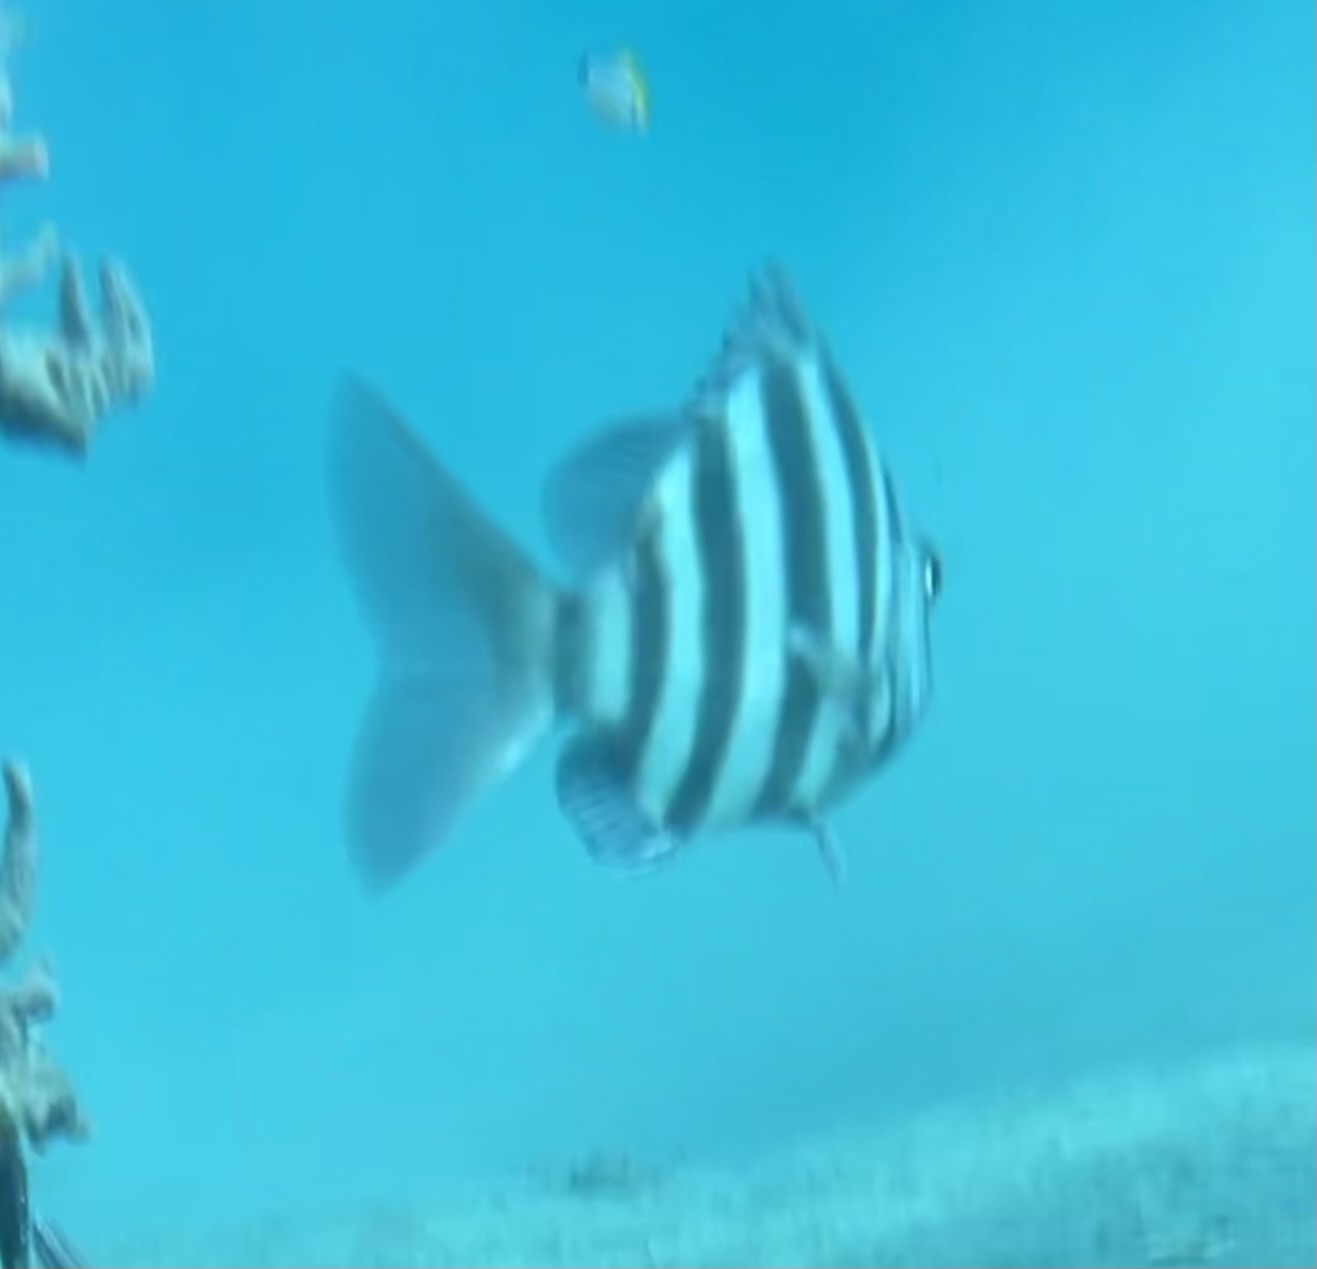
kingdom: Animalia
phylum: Chordata
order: Perciformes
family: Sparidae
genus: Archosargus
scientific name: Archosargus probatocephalus
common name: Sheepshead
